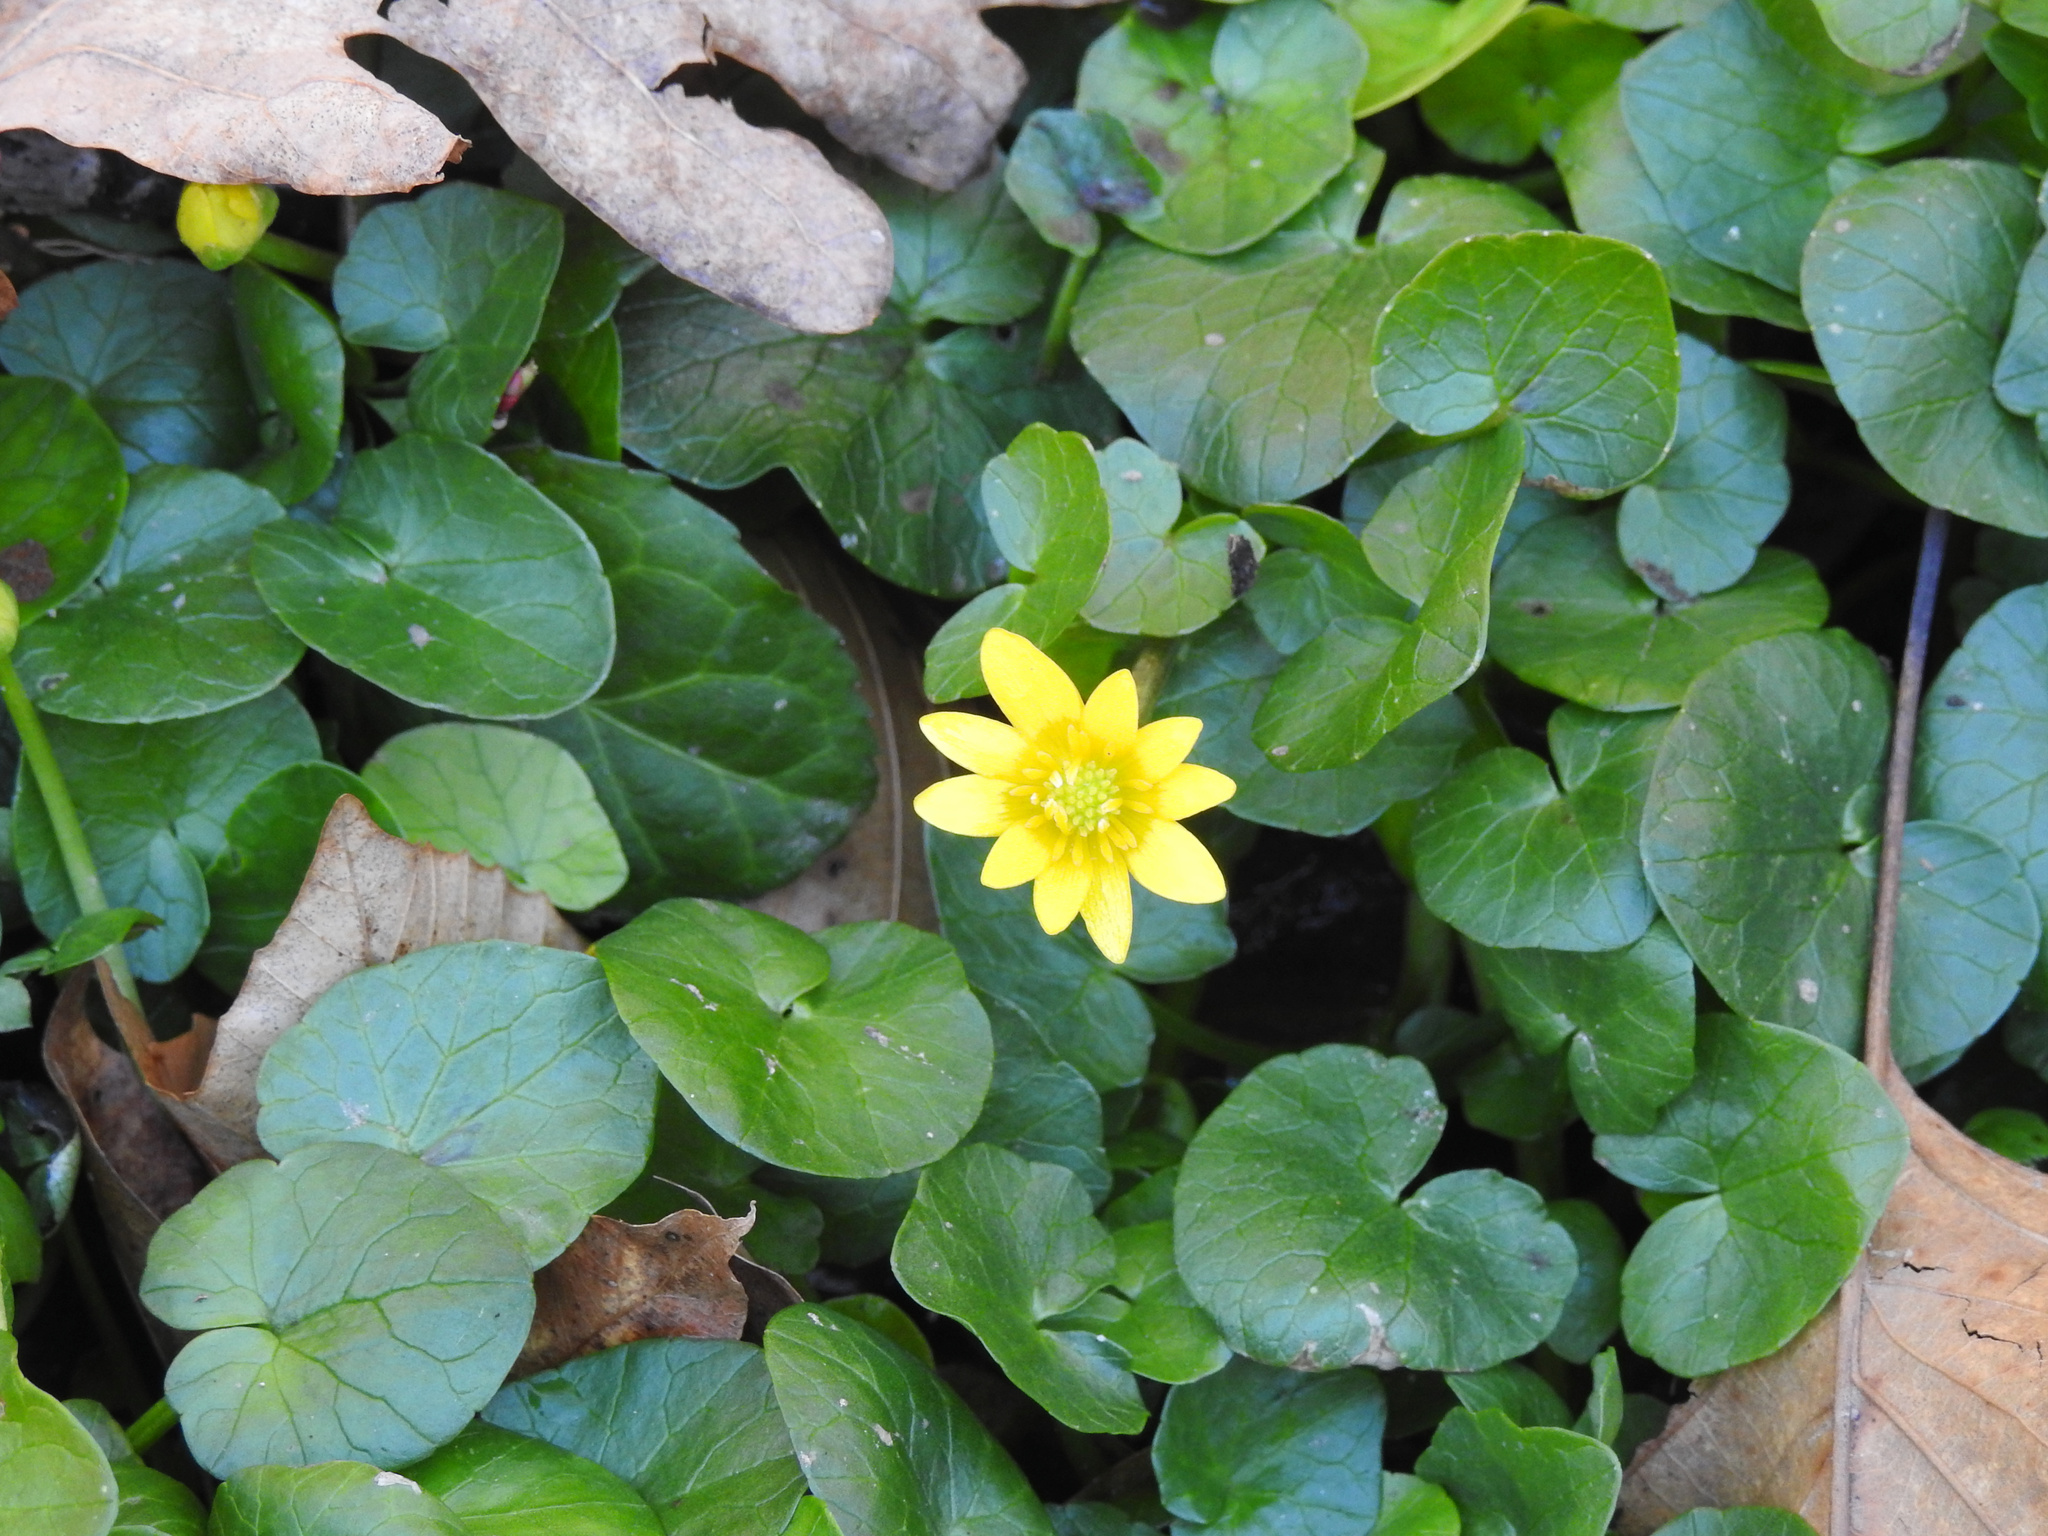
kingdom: Plantae
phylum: Tracheophyta
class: Magnoliopsida
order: Ranunculales
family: Ranunculaceae
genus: Ficaria
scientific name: Ficaria verna
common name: Lesser celandine
